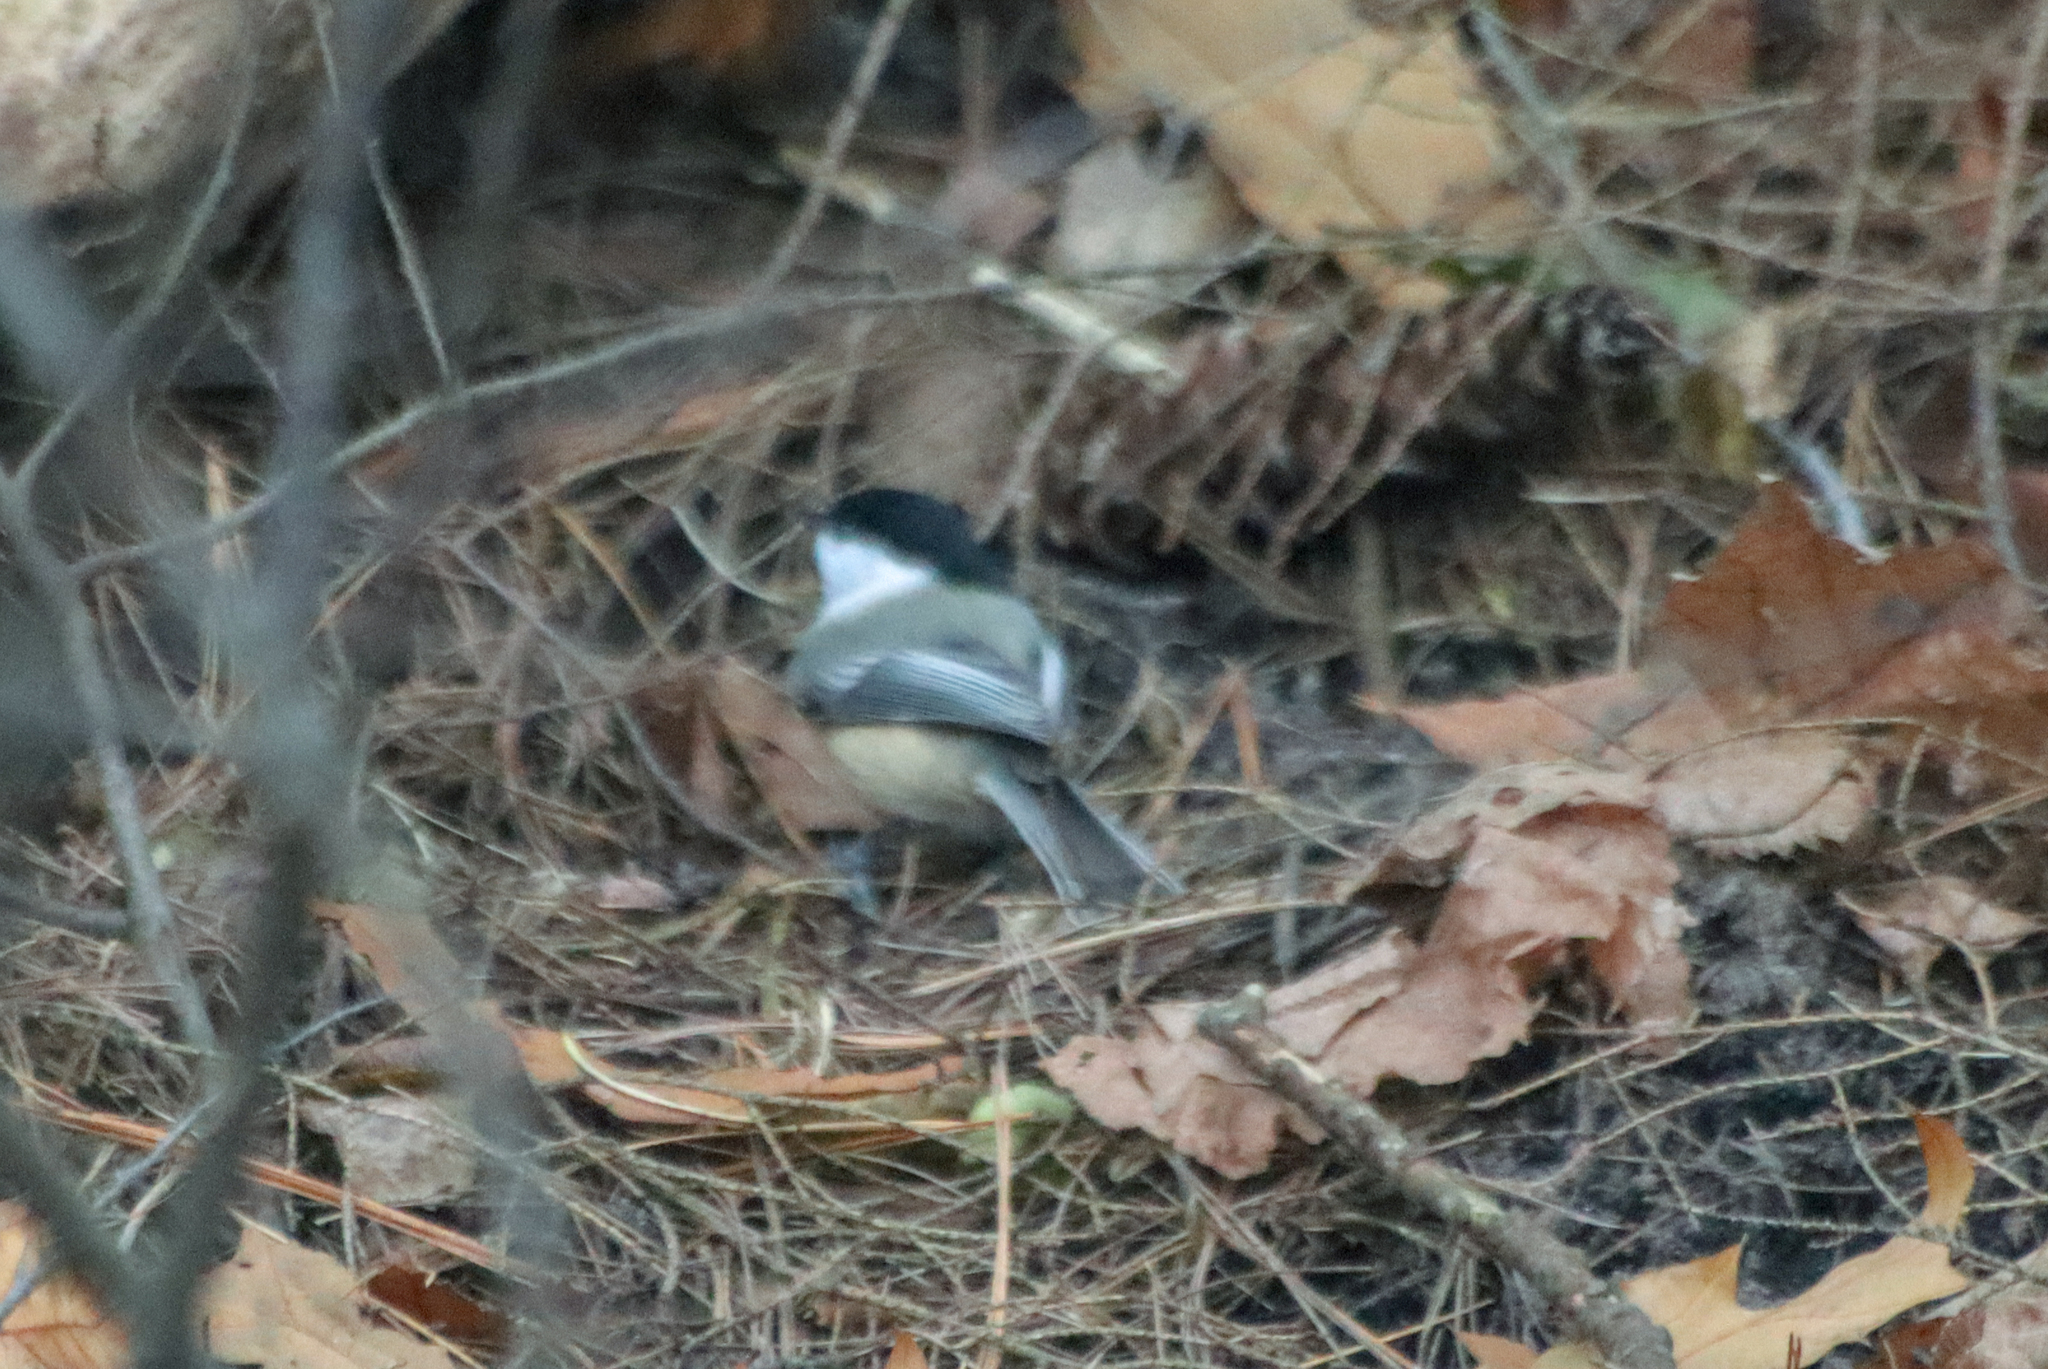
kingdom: Animalia
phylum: Chordata
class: Aves
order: Passeriformes
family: Paridae
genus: Poecile
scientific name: Poecile atricapillus
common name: Black-capped chickadee
